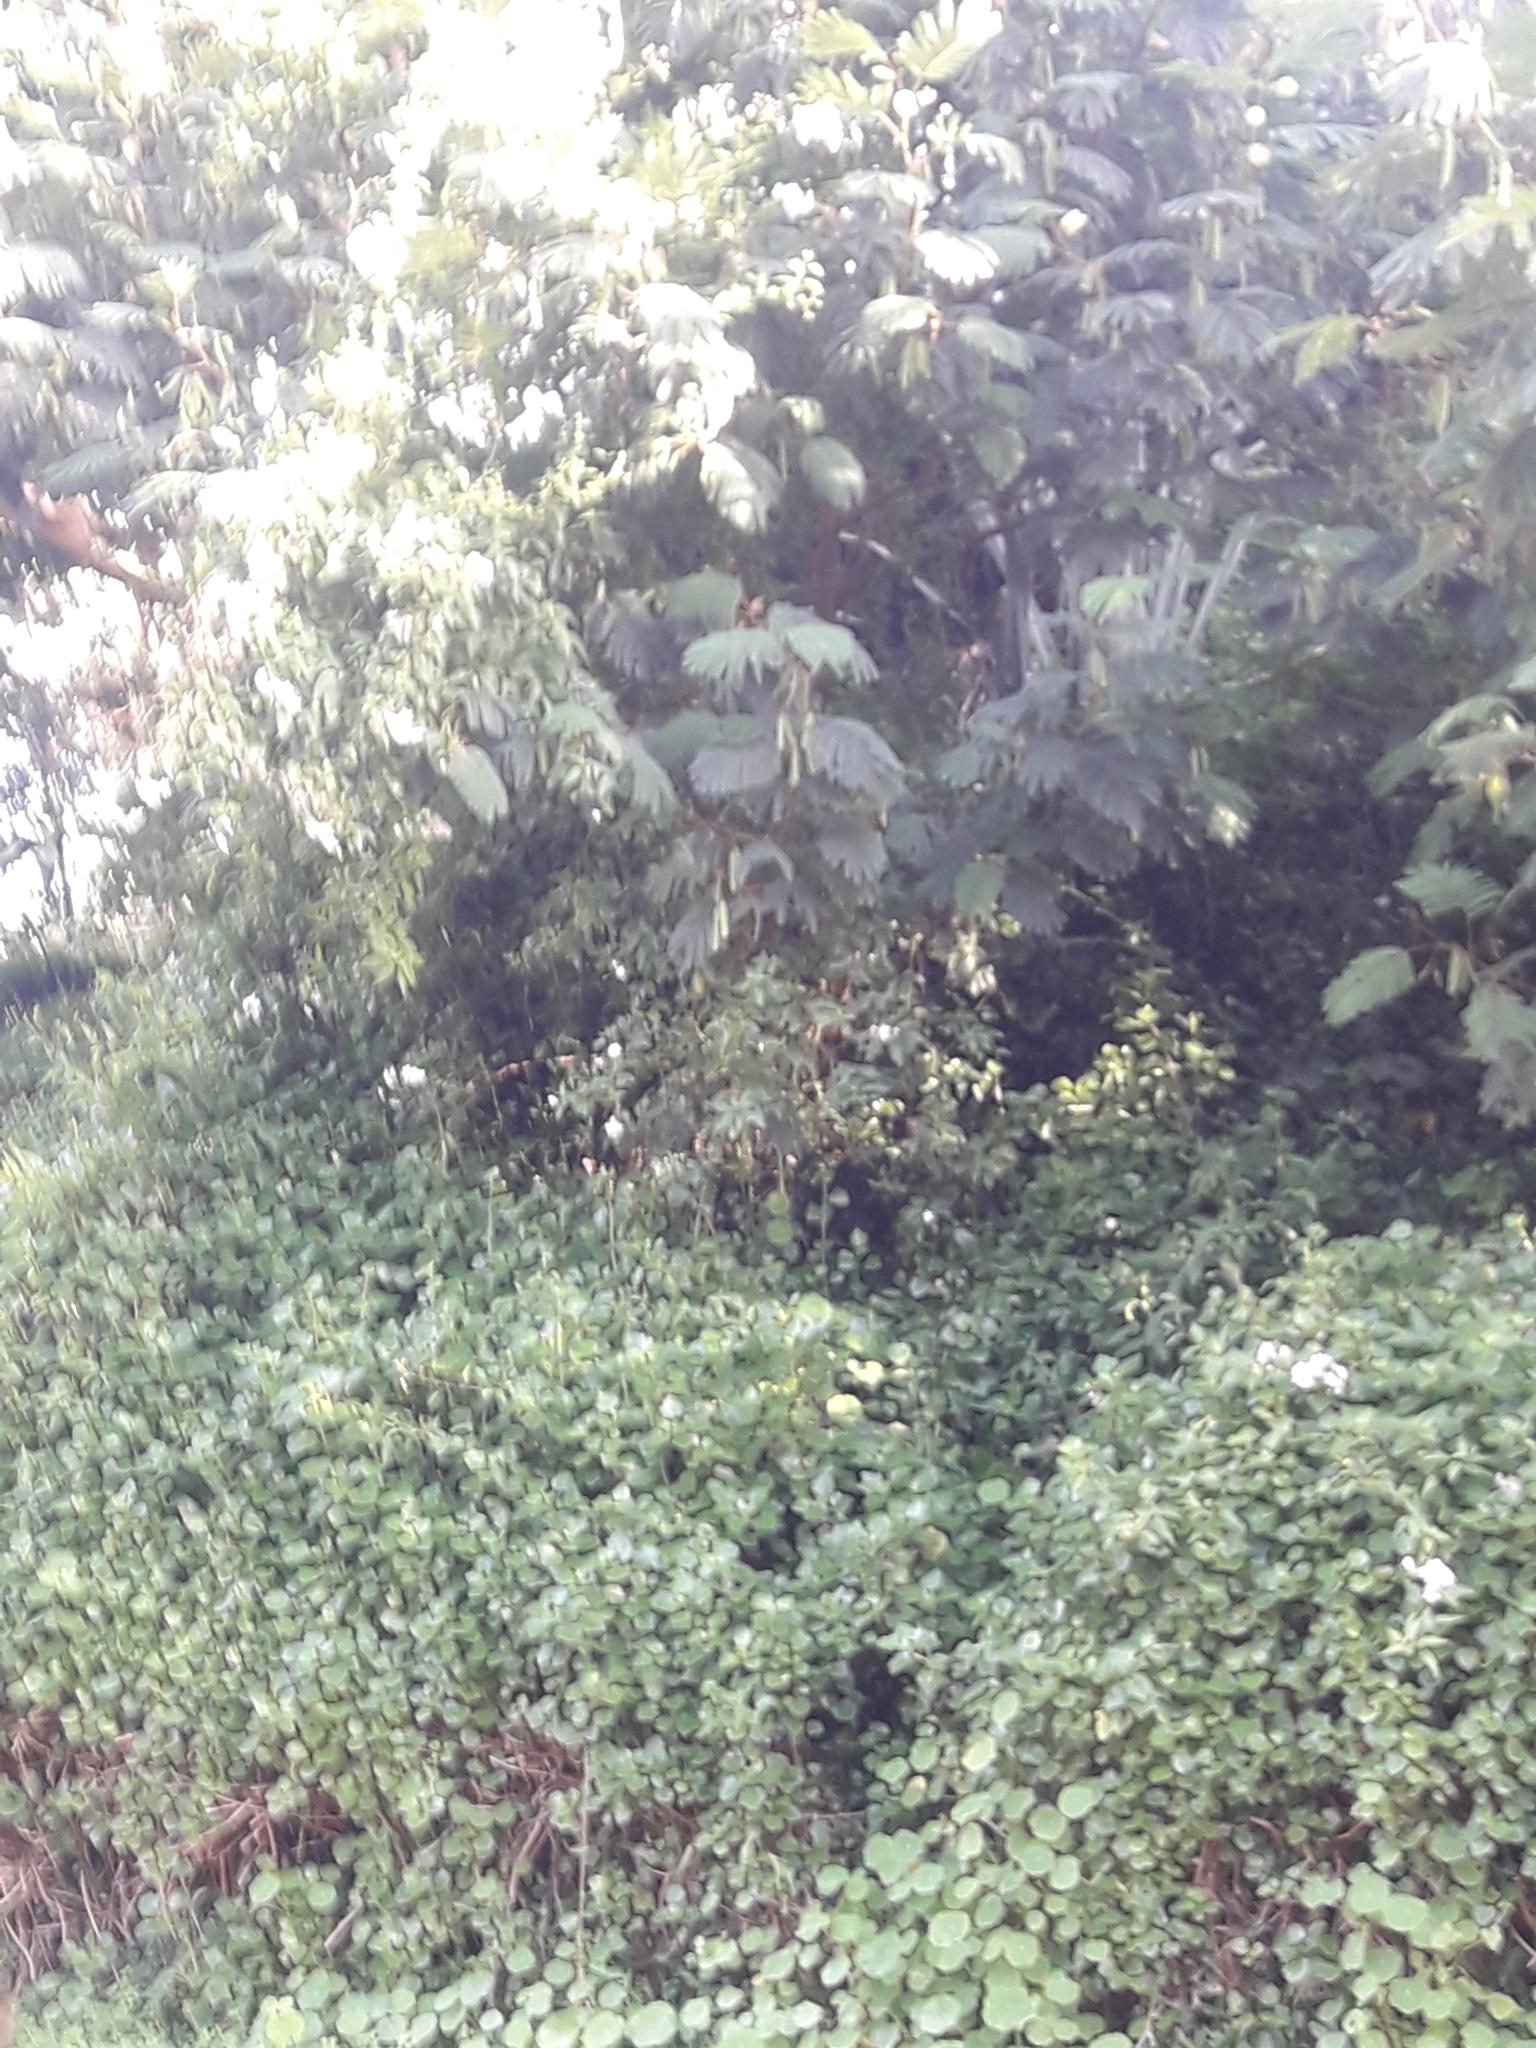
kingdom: Plantae
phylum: Tracheophyta
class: Magnoliopsida
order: Solanales
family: Solanaceae
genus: Solanum
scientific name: Solanum laxum
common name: Nightshade
